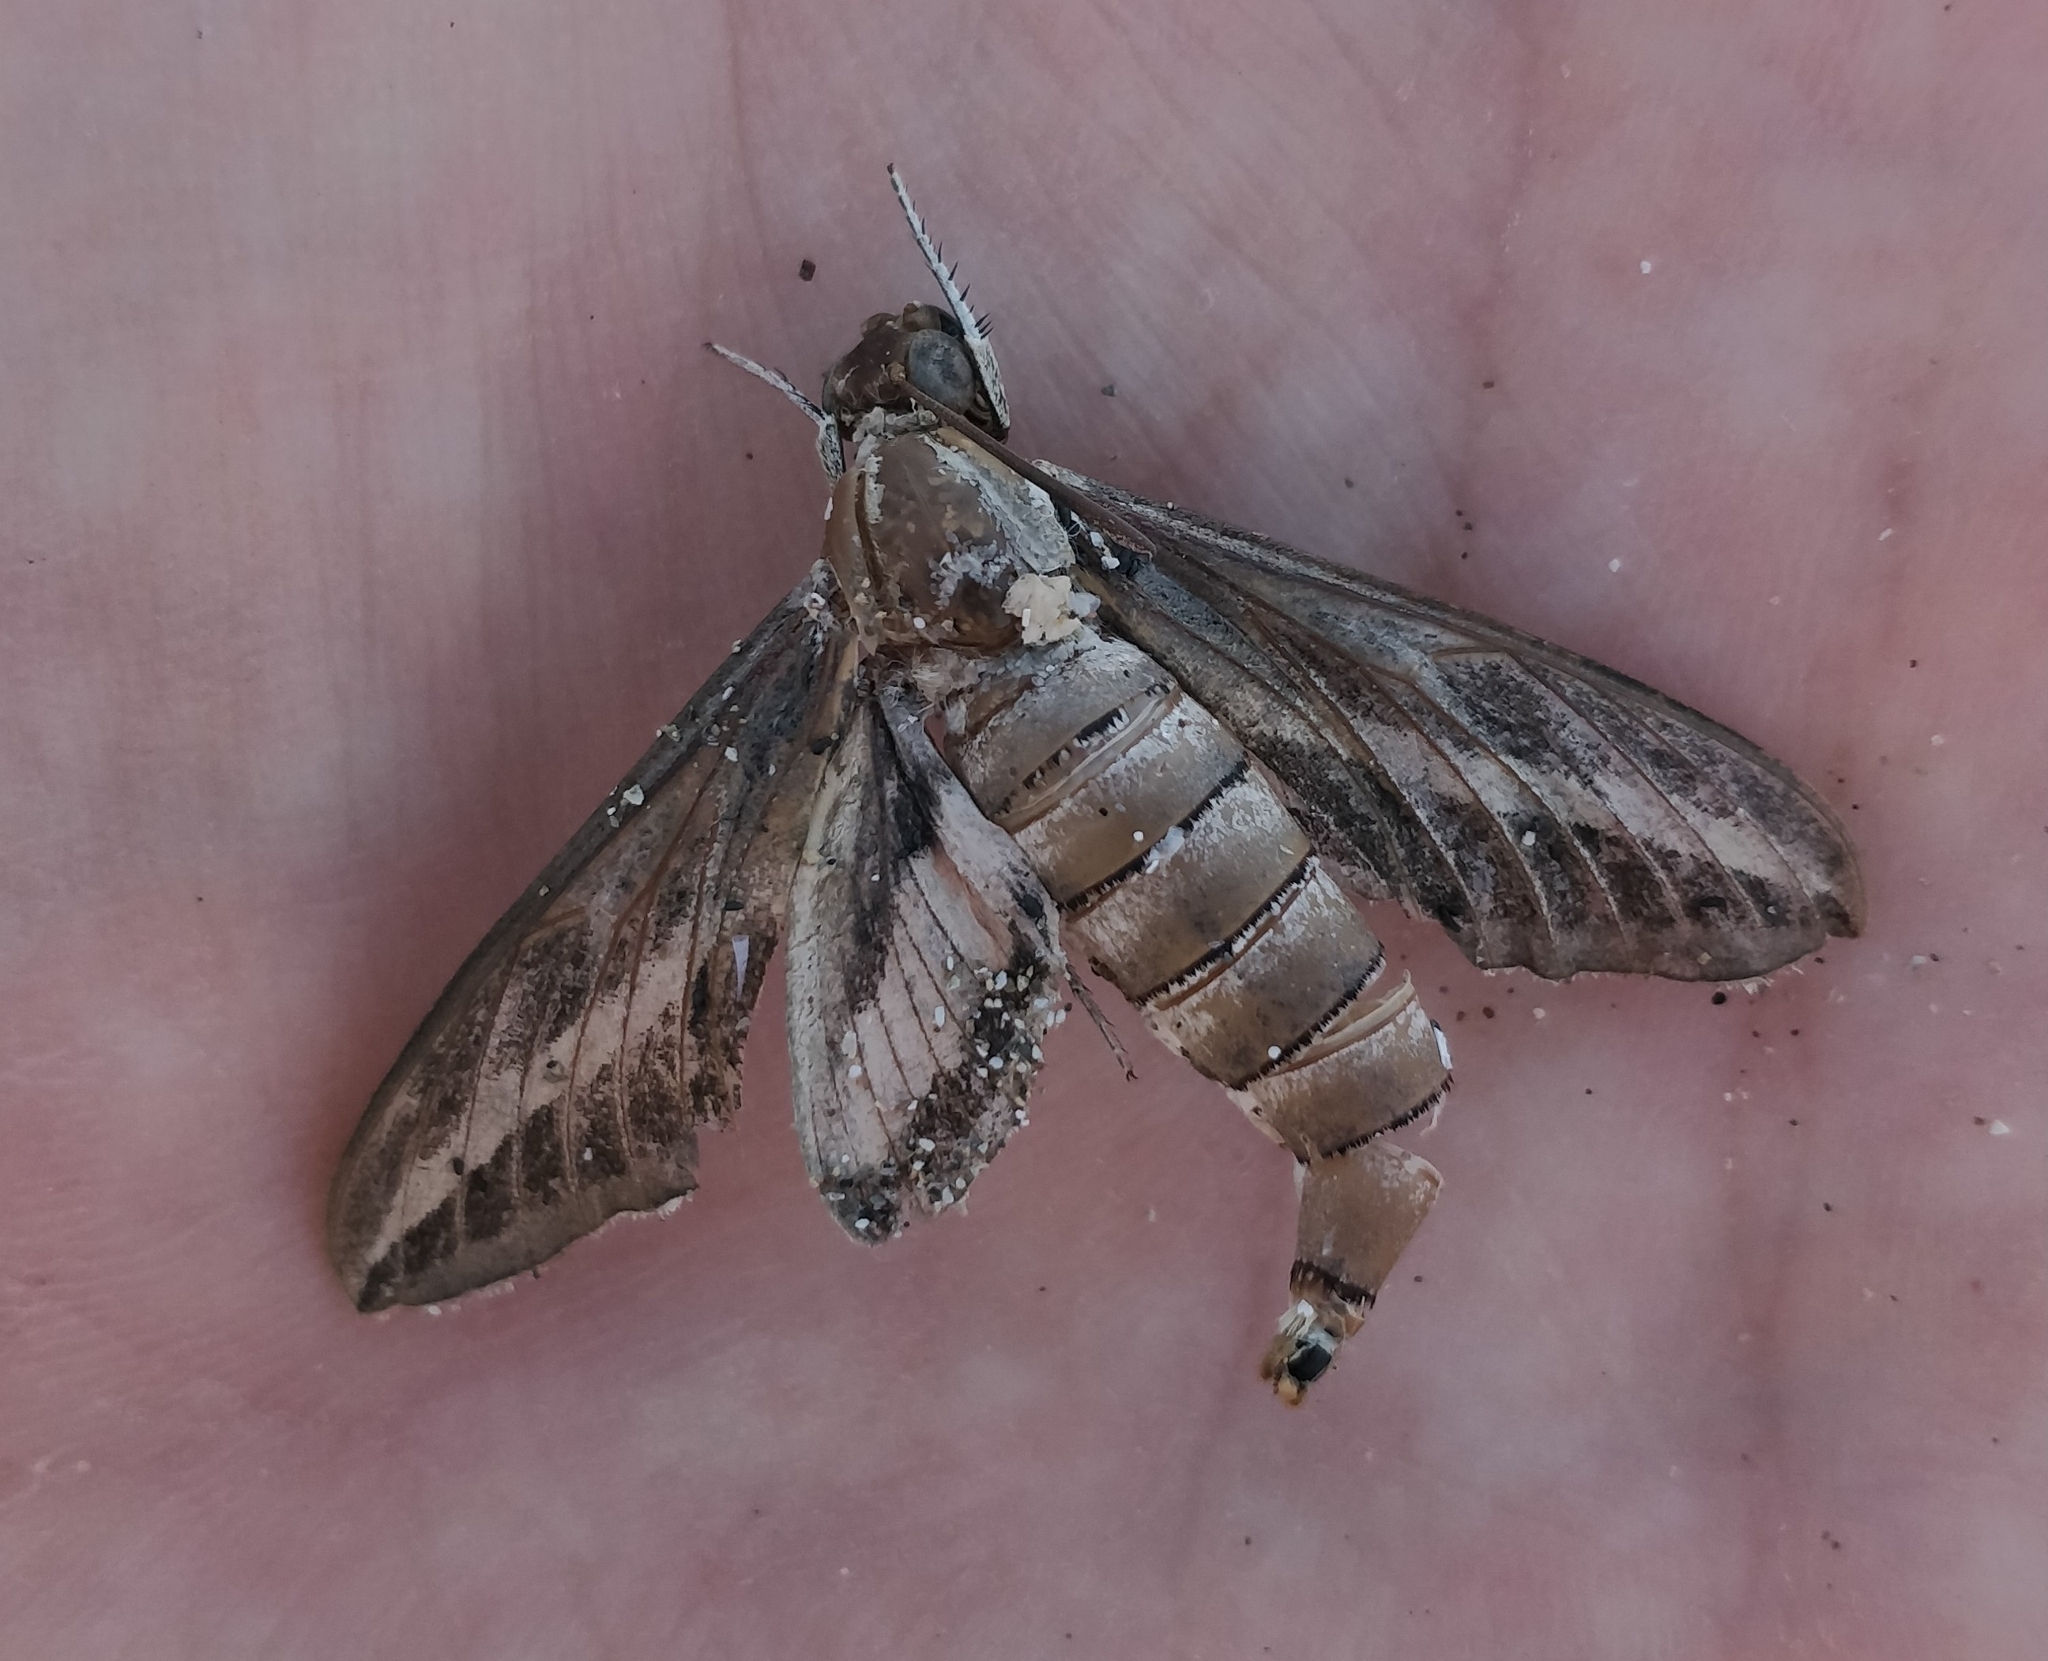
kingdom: Animalia
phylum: Arthropoda
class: Insecta
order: Lepidoptera
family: Sphingidae
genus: Hyles
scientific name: Hyles livornica
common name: Striped hawk-moth
